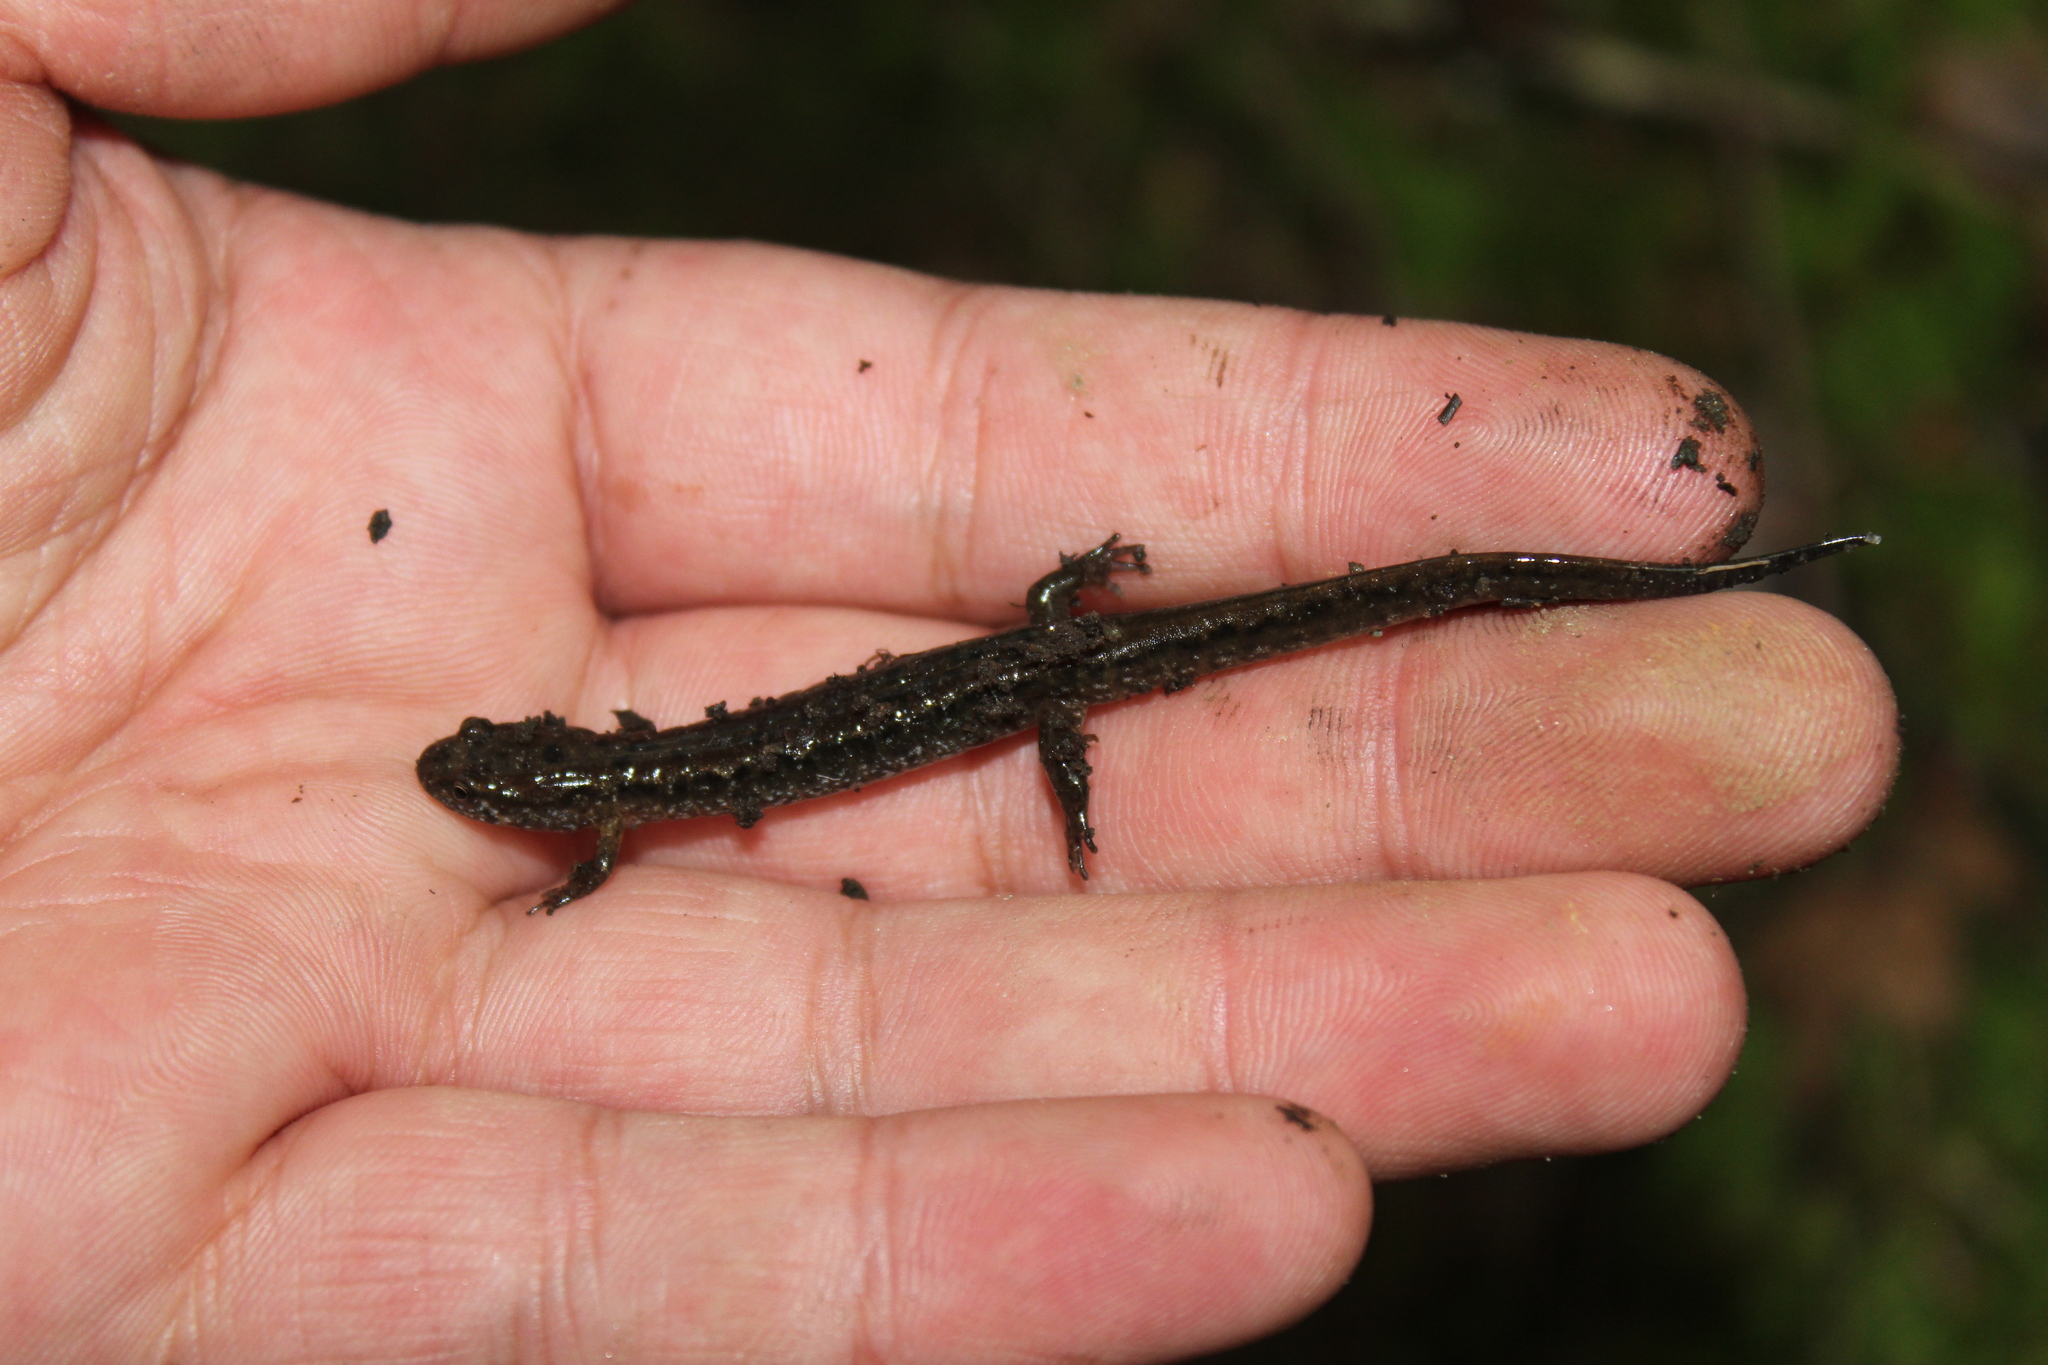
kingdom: Animalia
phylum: Chordata
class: Amphibia
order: Caudata
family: Plethodontidae
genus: Desmognathus
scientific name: Desmognathus fuscus
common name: Northern dusky salamander
